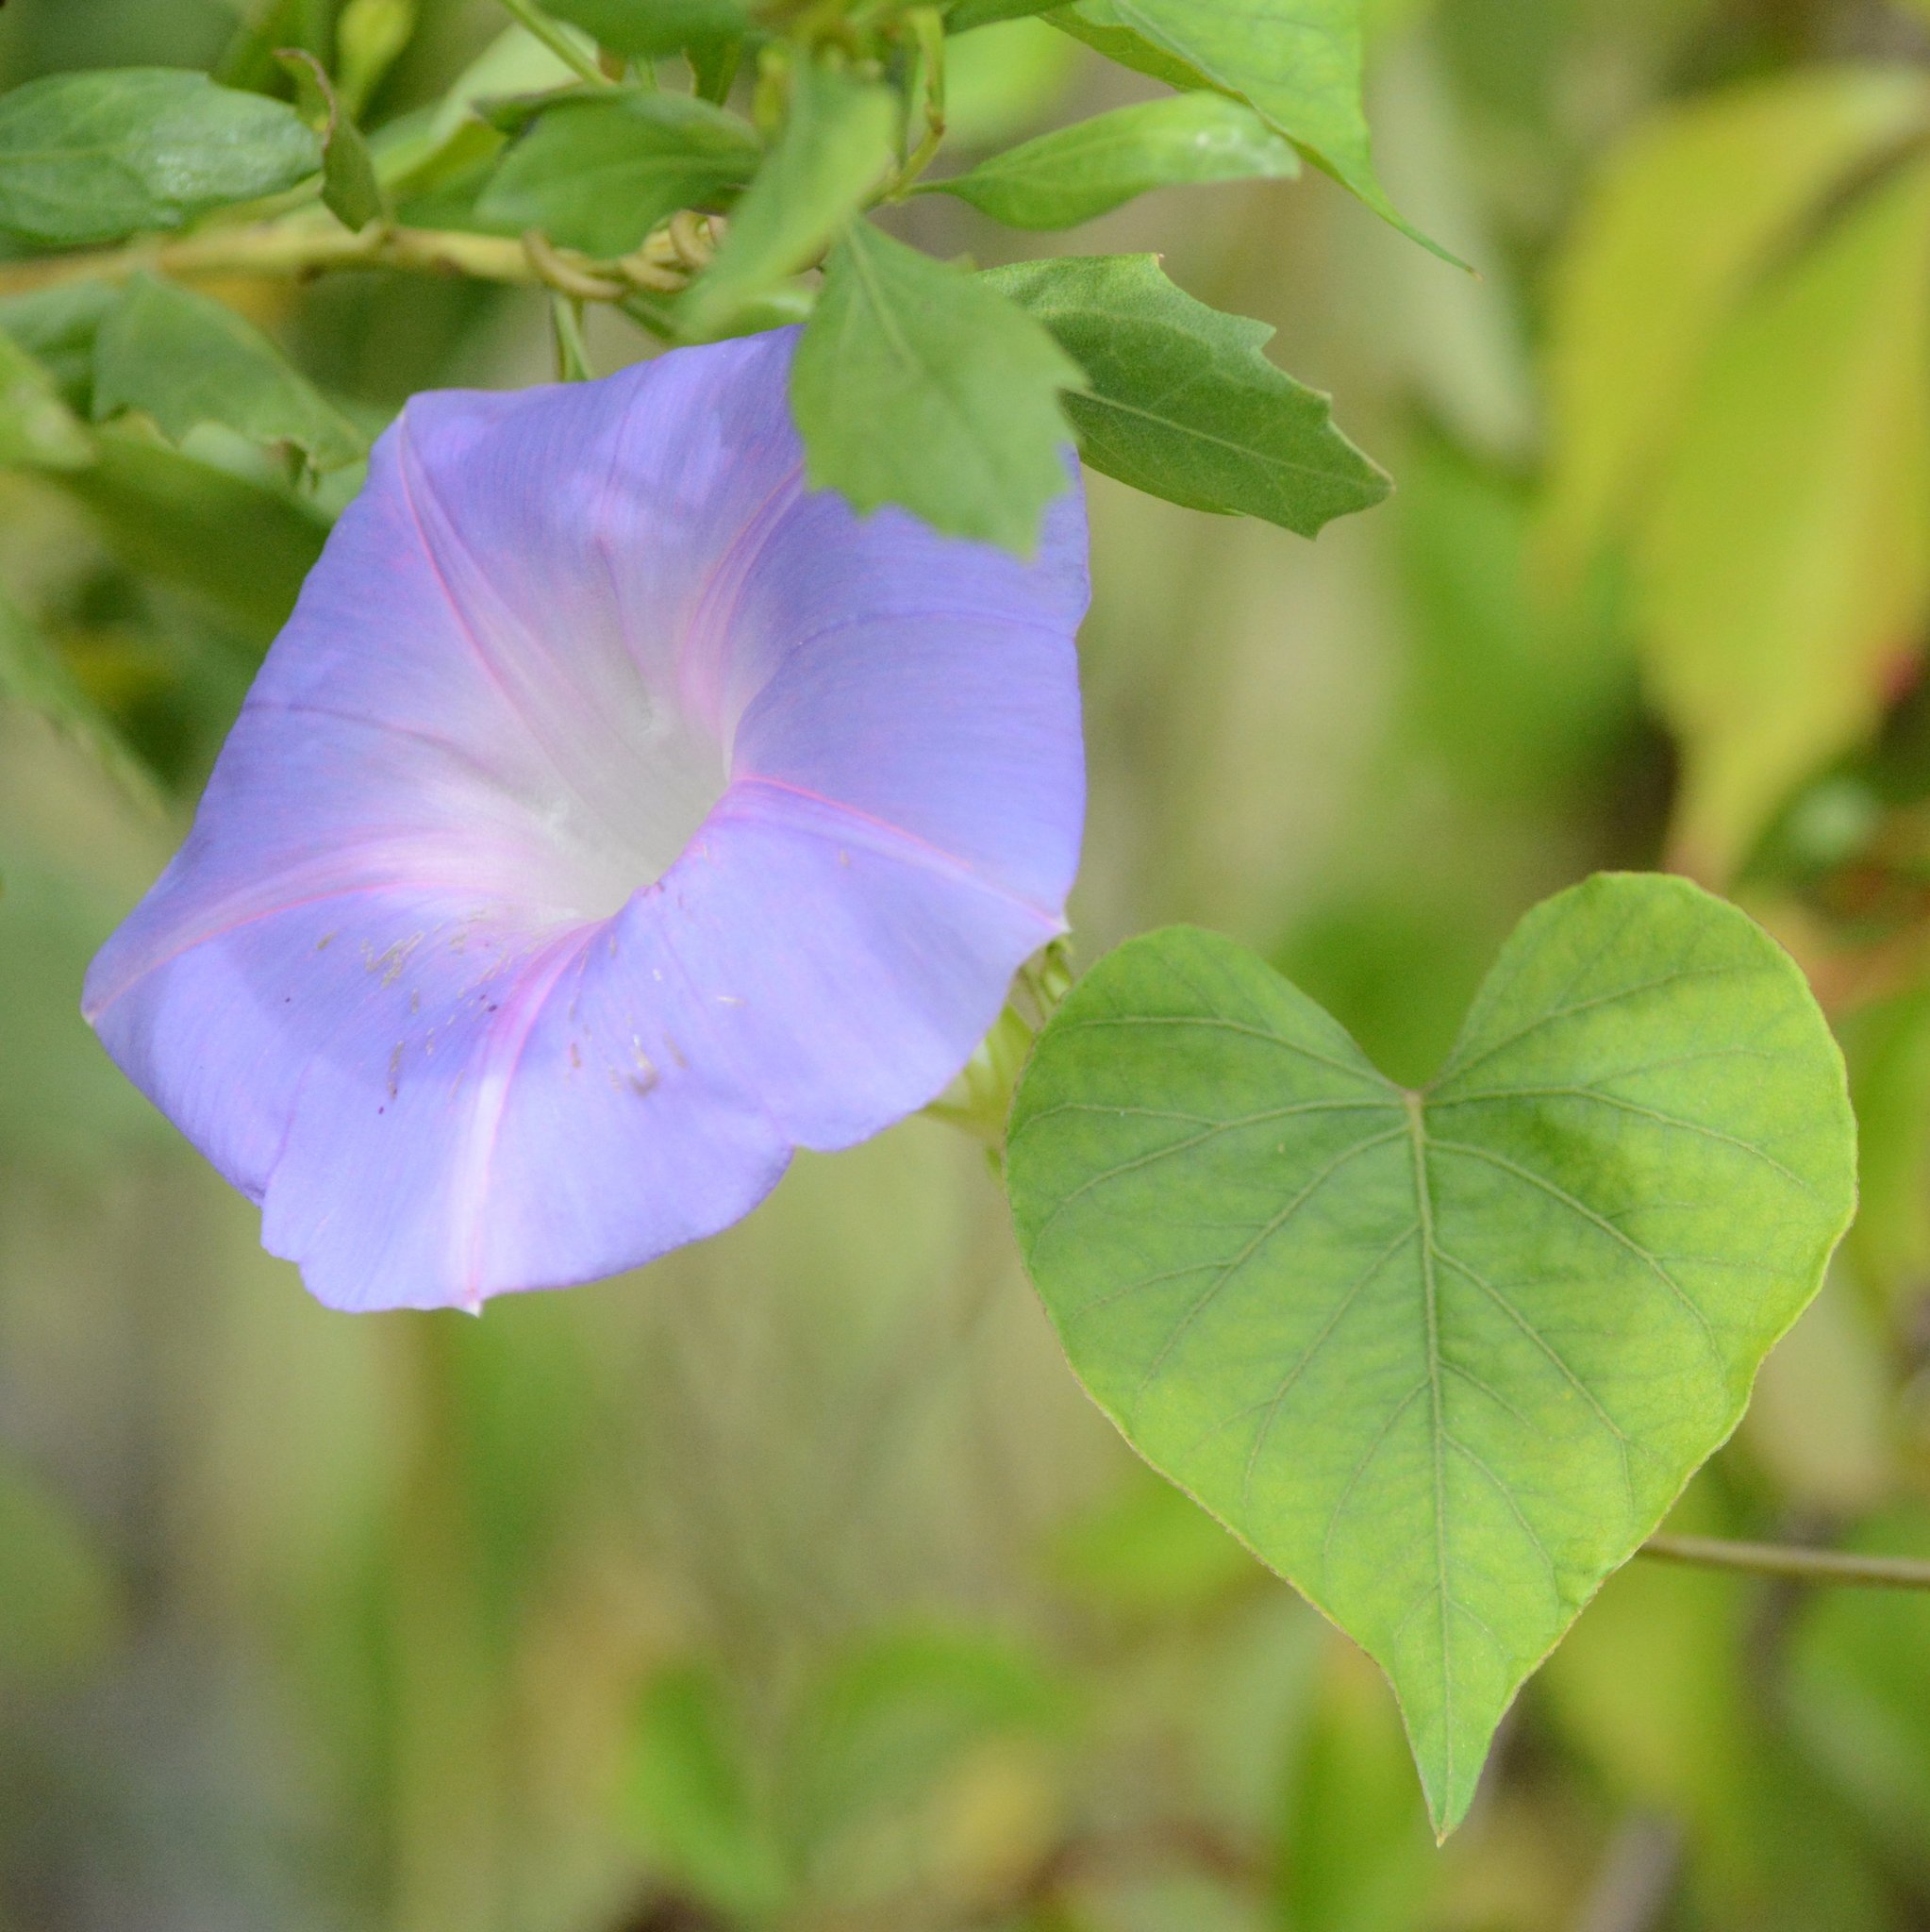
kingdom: Plantae
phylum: Tracheophyta
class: Magnoliopsida
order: Solanales
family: Convolvulaceae
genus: Ipomoea
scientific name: Ipomoea indica
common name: Blue dawnflower
